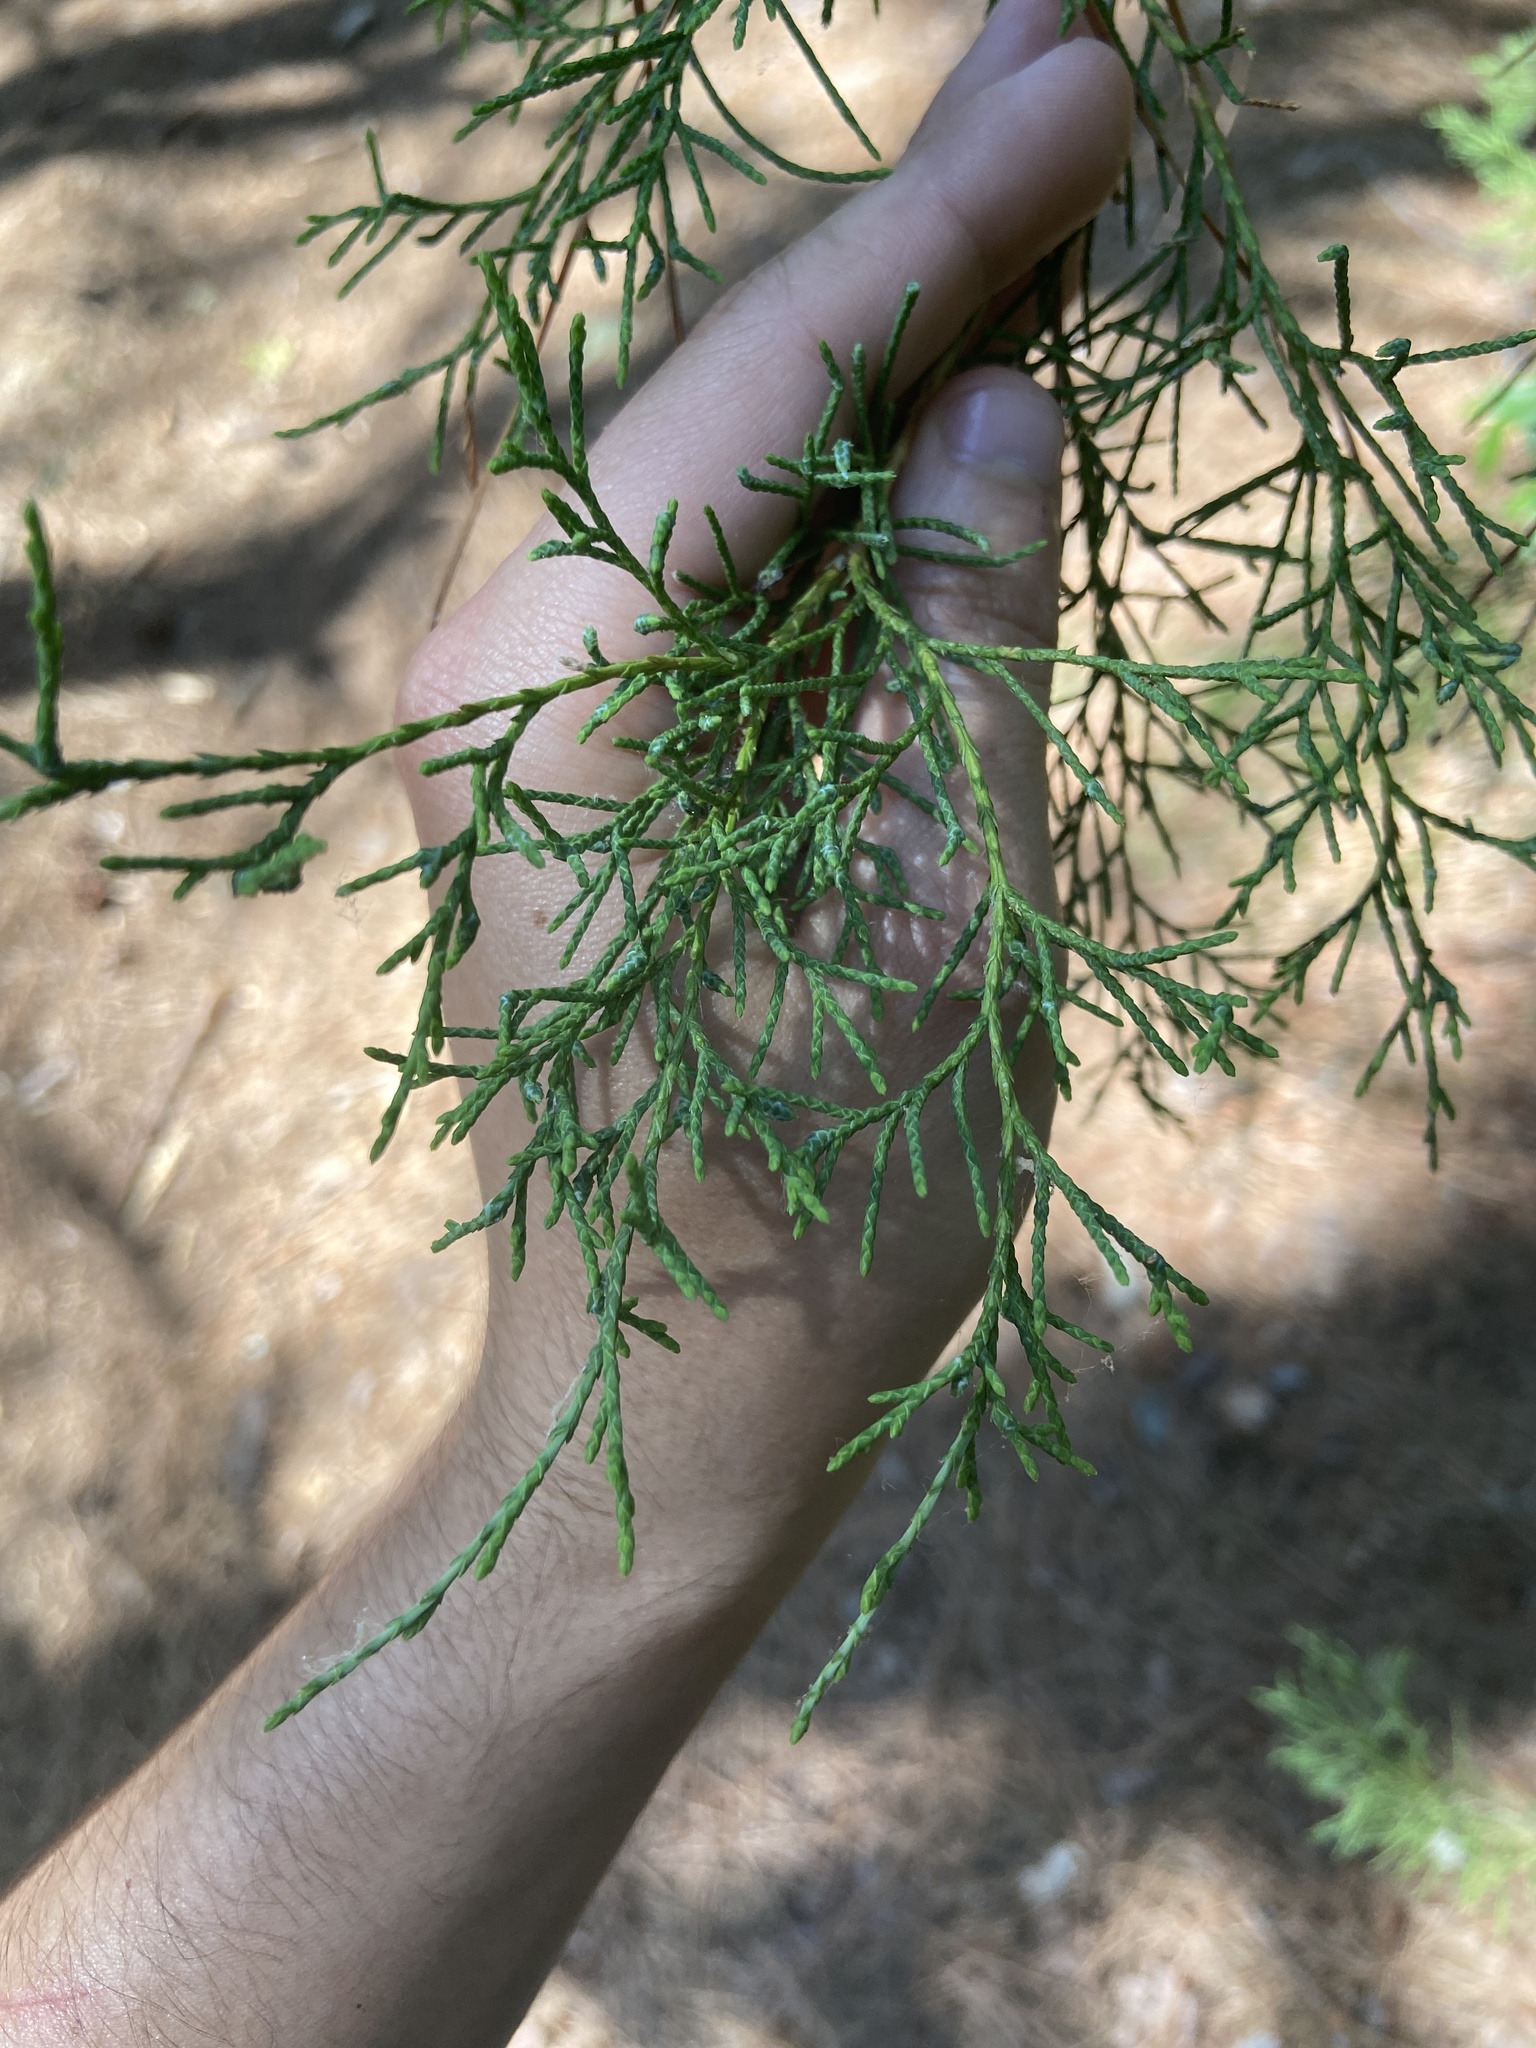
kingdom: Plantae
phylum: Tracheophyta
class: Pinopsida
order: Pinales
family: Cupressaceae
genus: Juniperus
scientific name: Juniperus virginiana
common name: Red juniper
